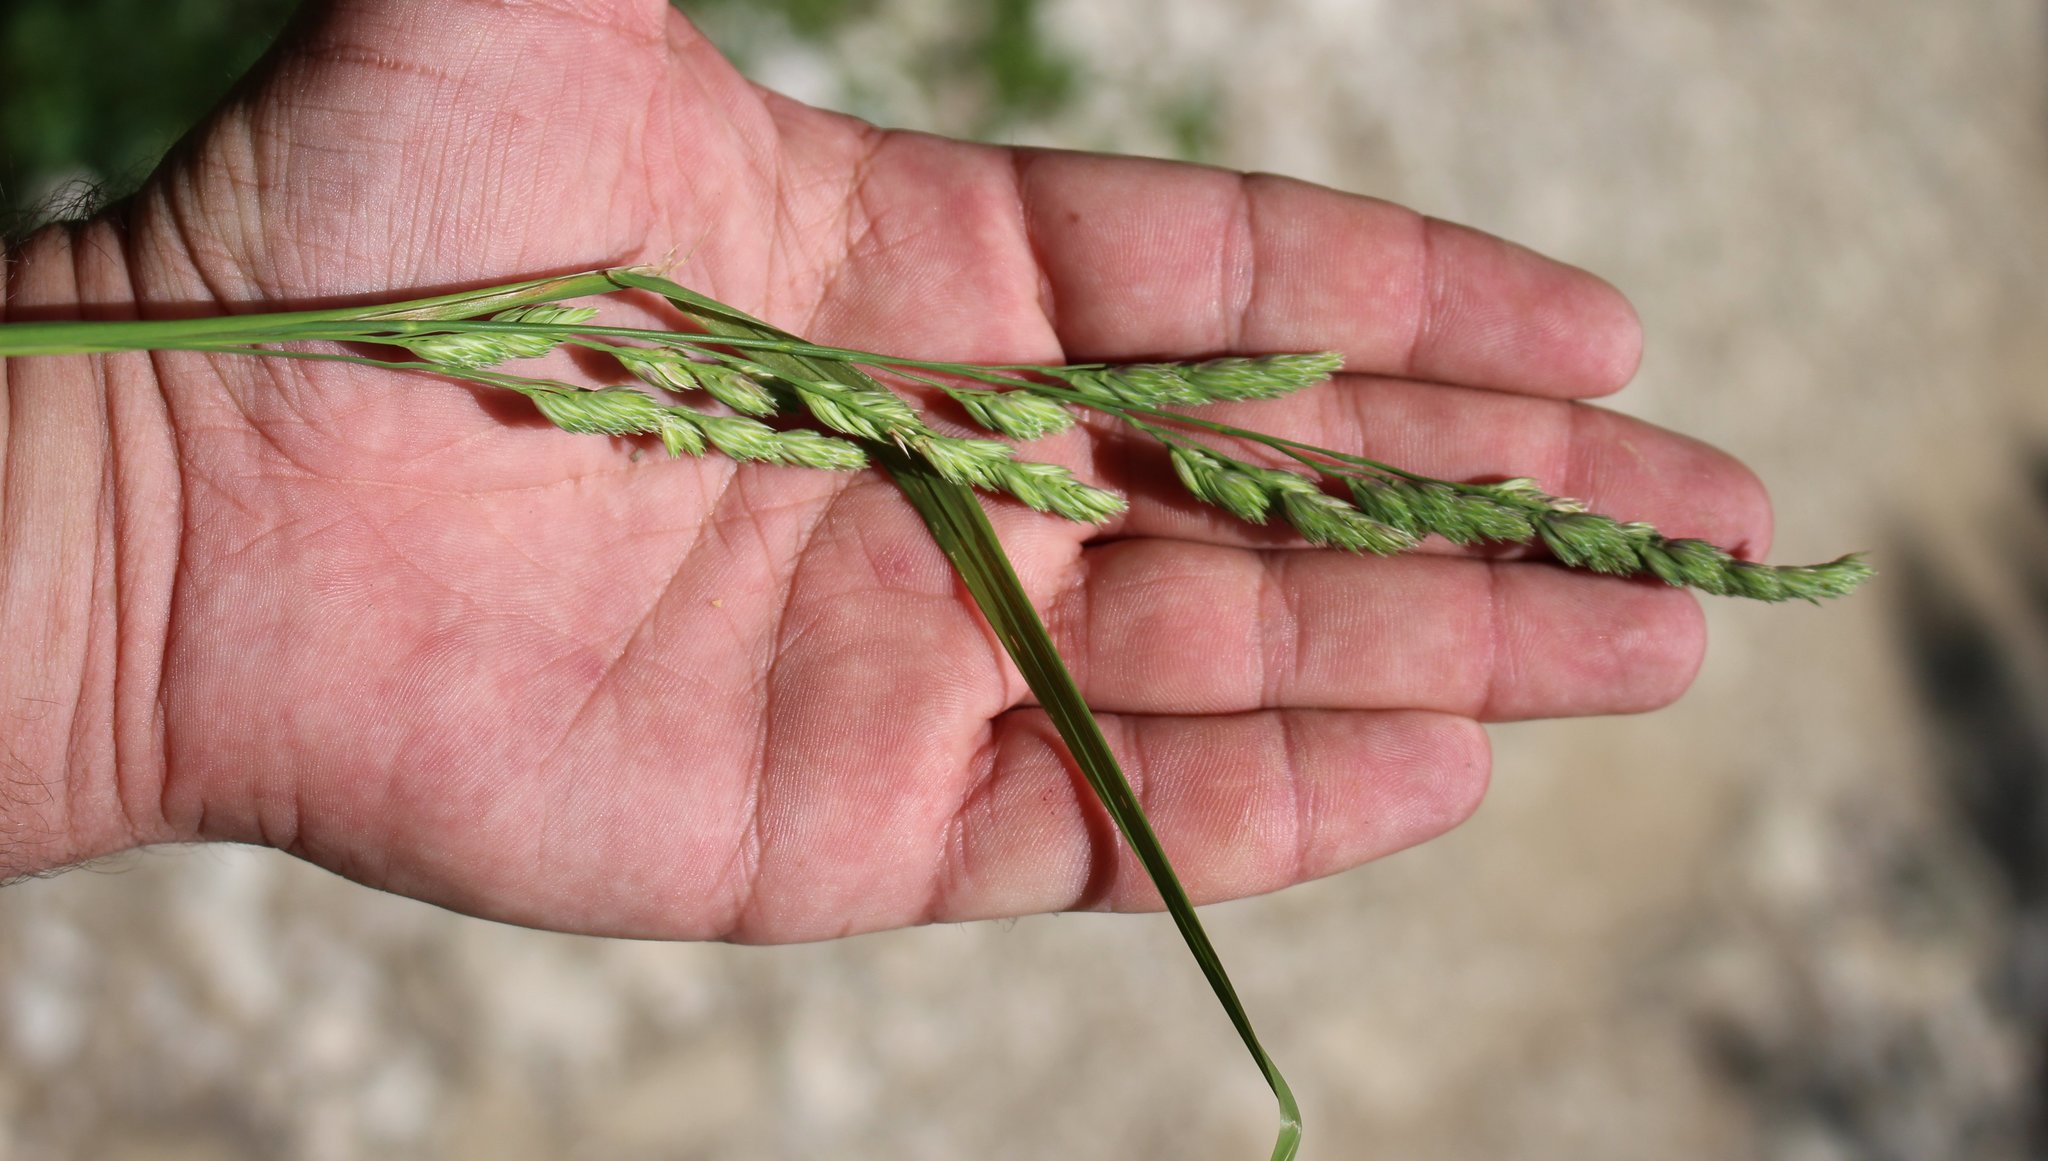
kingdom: Plantae
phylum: Tracheophyta
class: Liliopsida
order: Poales
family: Poaceae
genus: Dactylis
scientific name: Dactylis glomerata
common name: Orchardgrass
